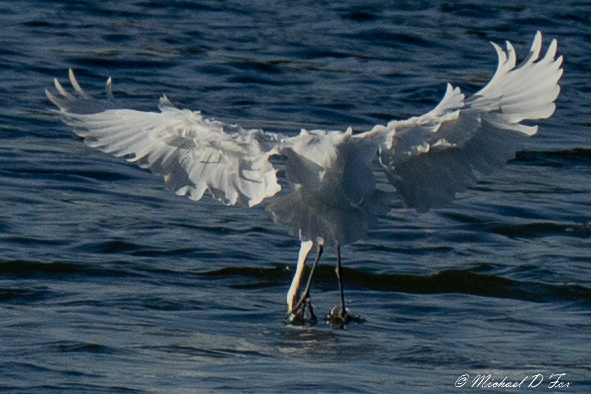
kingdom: Animalia
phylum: Chordata
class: Aves
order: Pelecaniformes
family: Ardeidae
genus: Ardea
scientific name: Ardea alba
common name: Great egret
